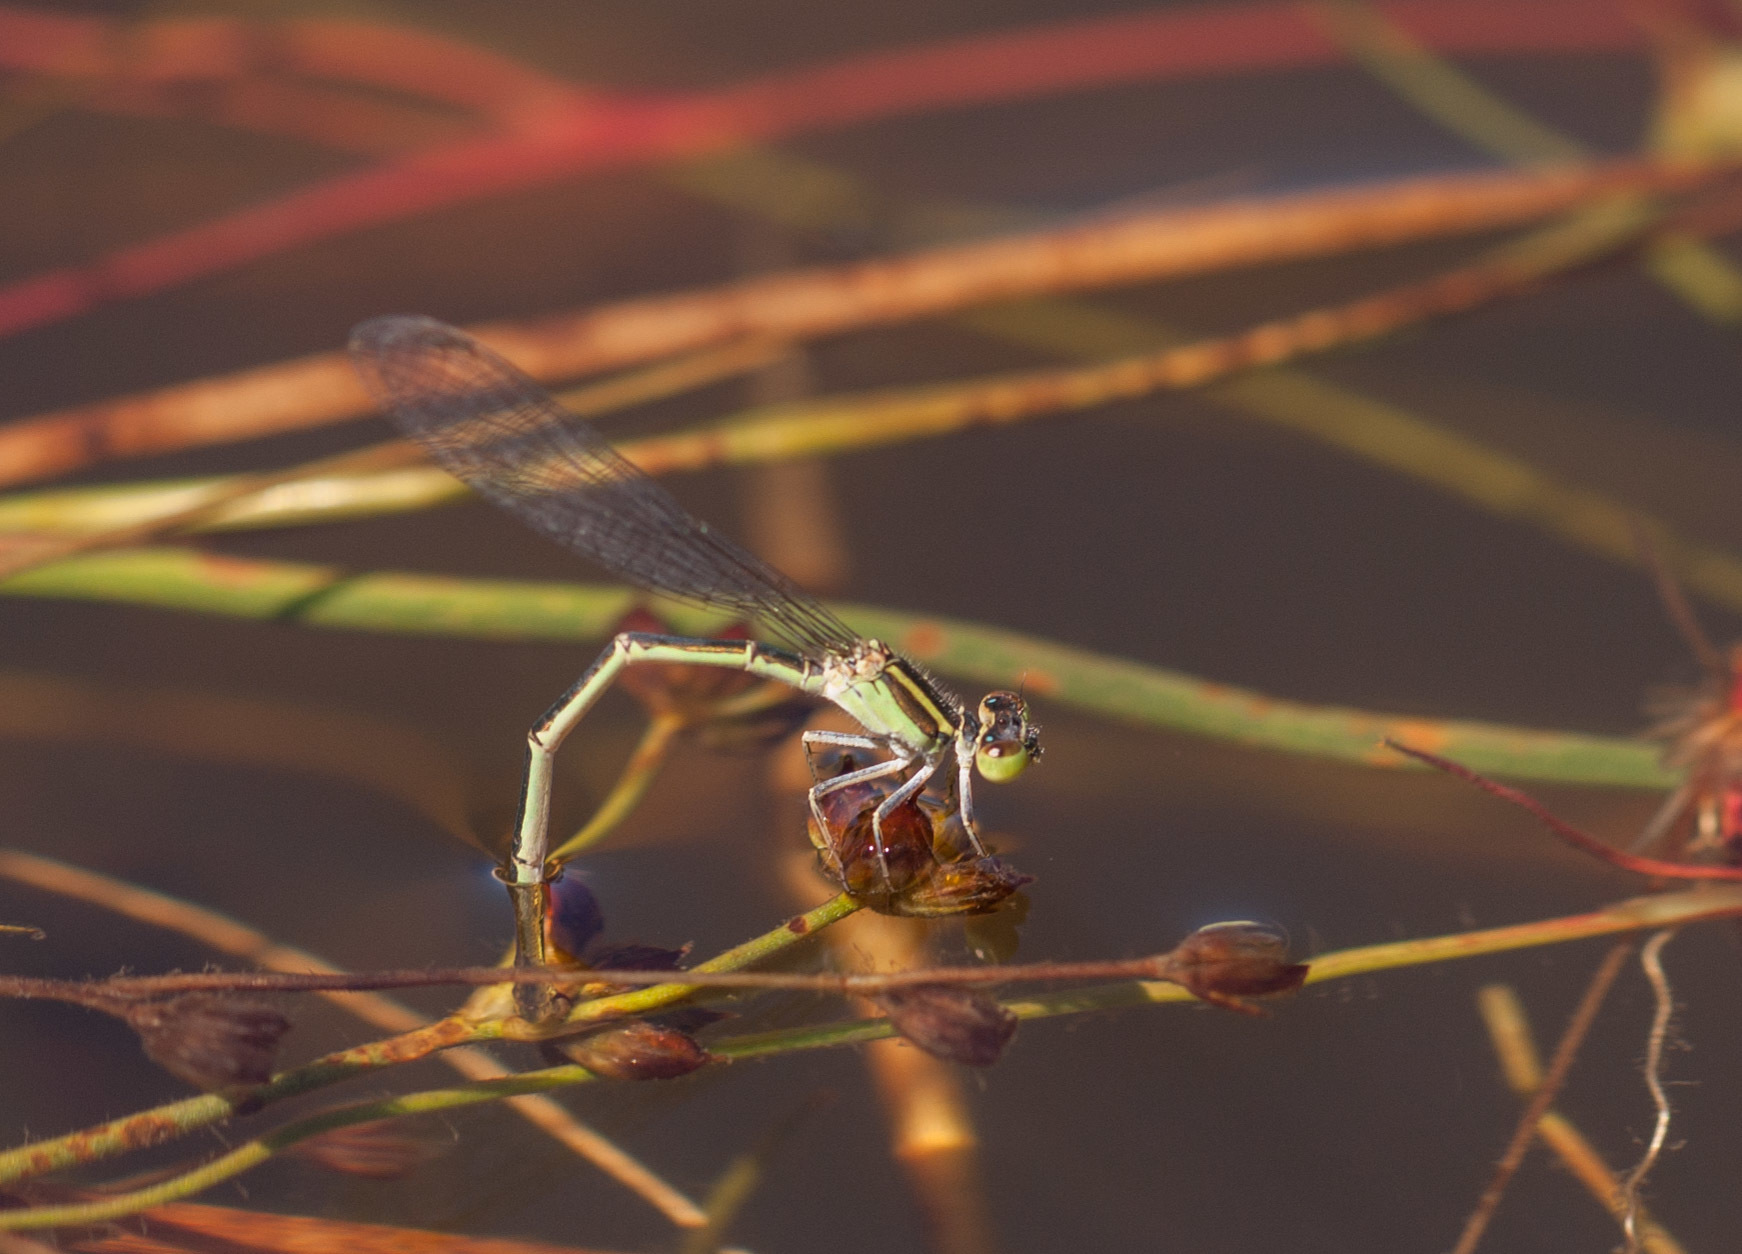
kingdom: Animalia
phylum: Arthropoda
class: Insecta
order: Odonata
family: Coenagrionidae
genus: Ischnura
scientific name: Ischnura aurora
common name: Gossamer damselfly
